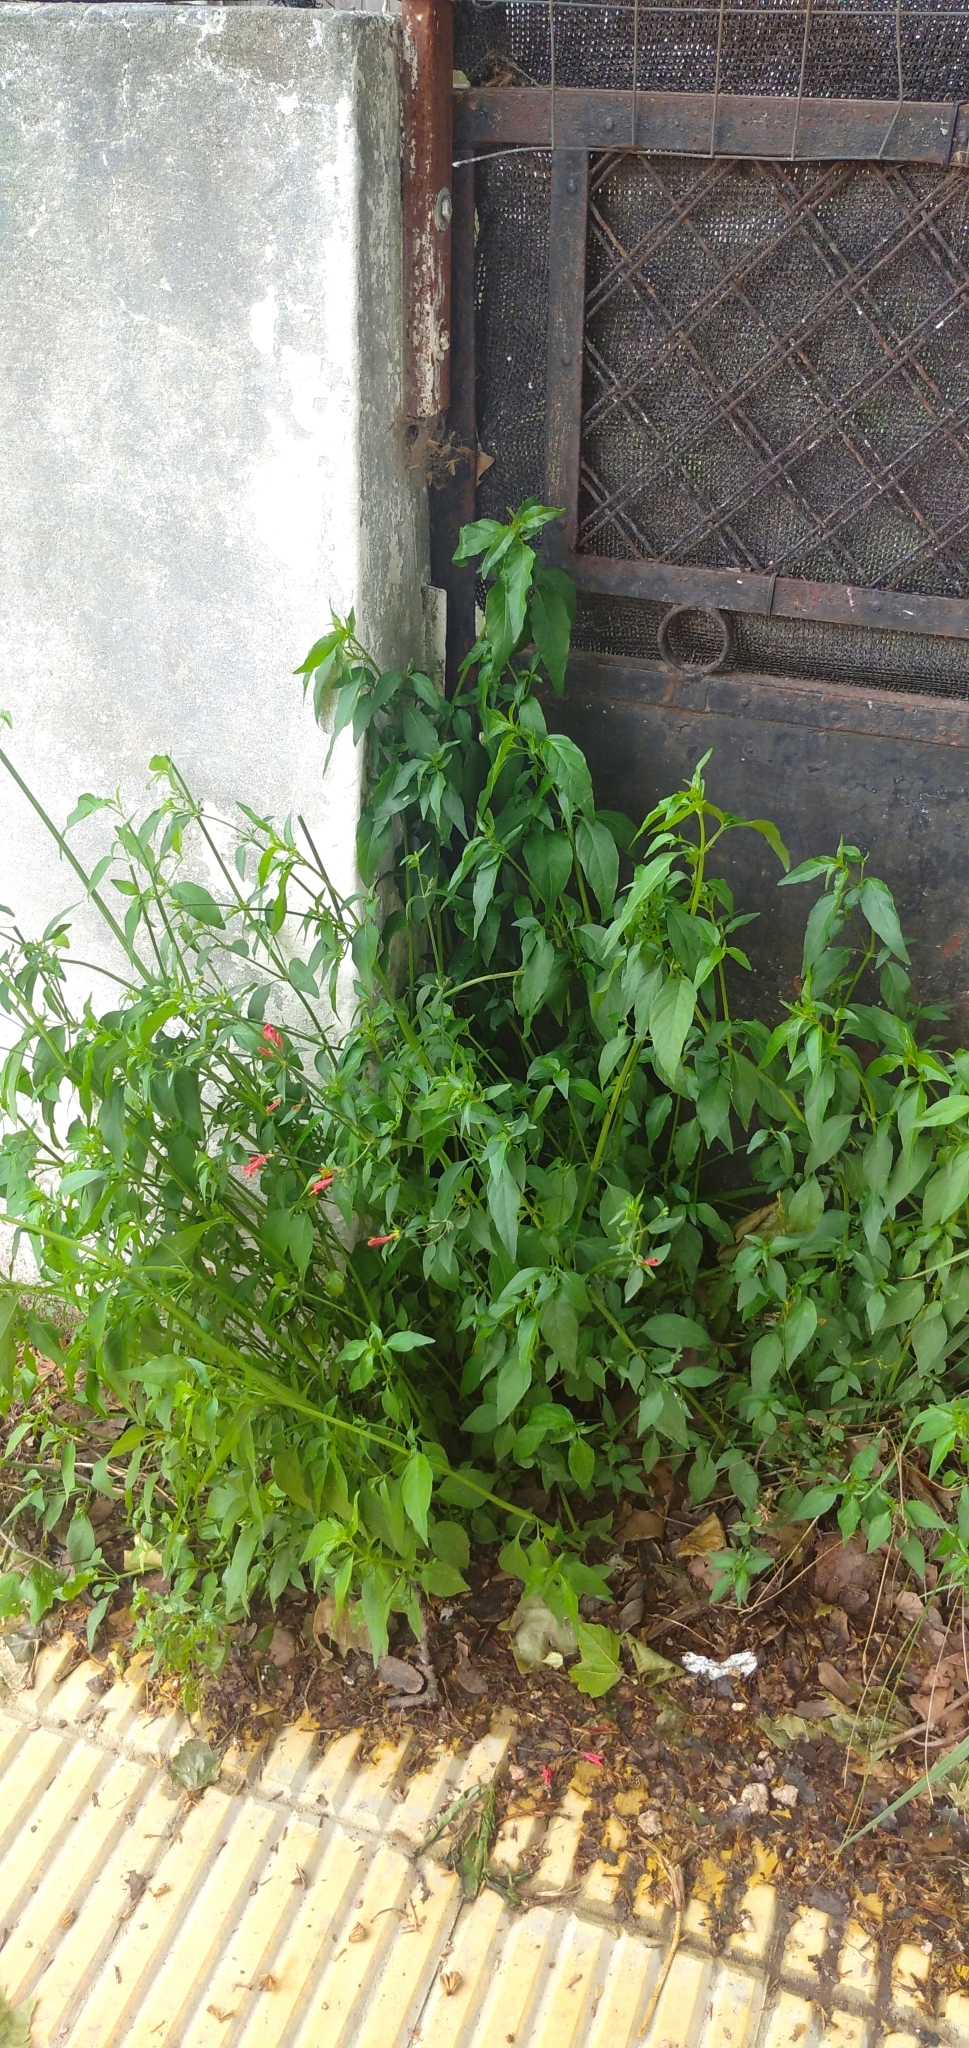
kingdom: Plantae
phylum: Tracheophyta
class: Magnoliopsida
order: Lamiales
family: Acanthaceae
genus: Dicliptera
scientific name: Dicliptera squarrosa
